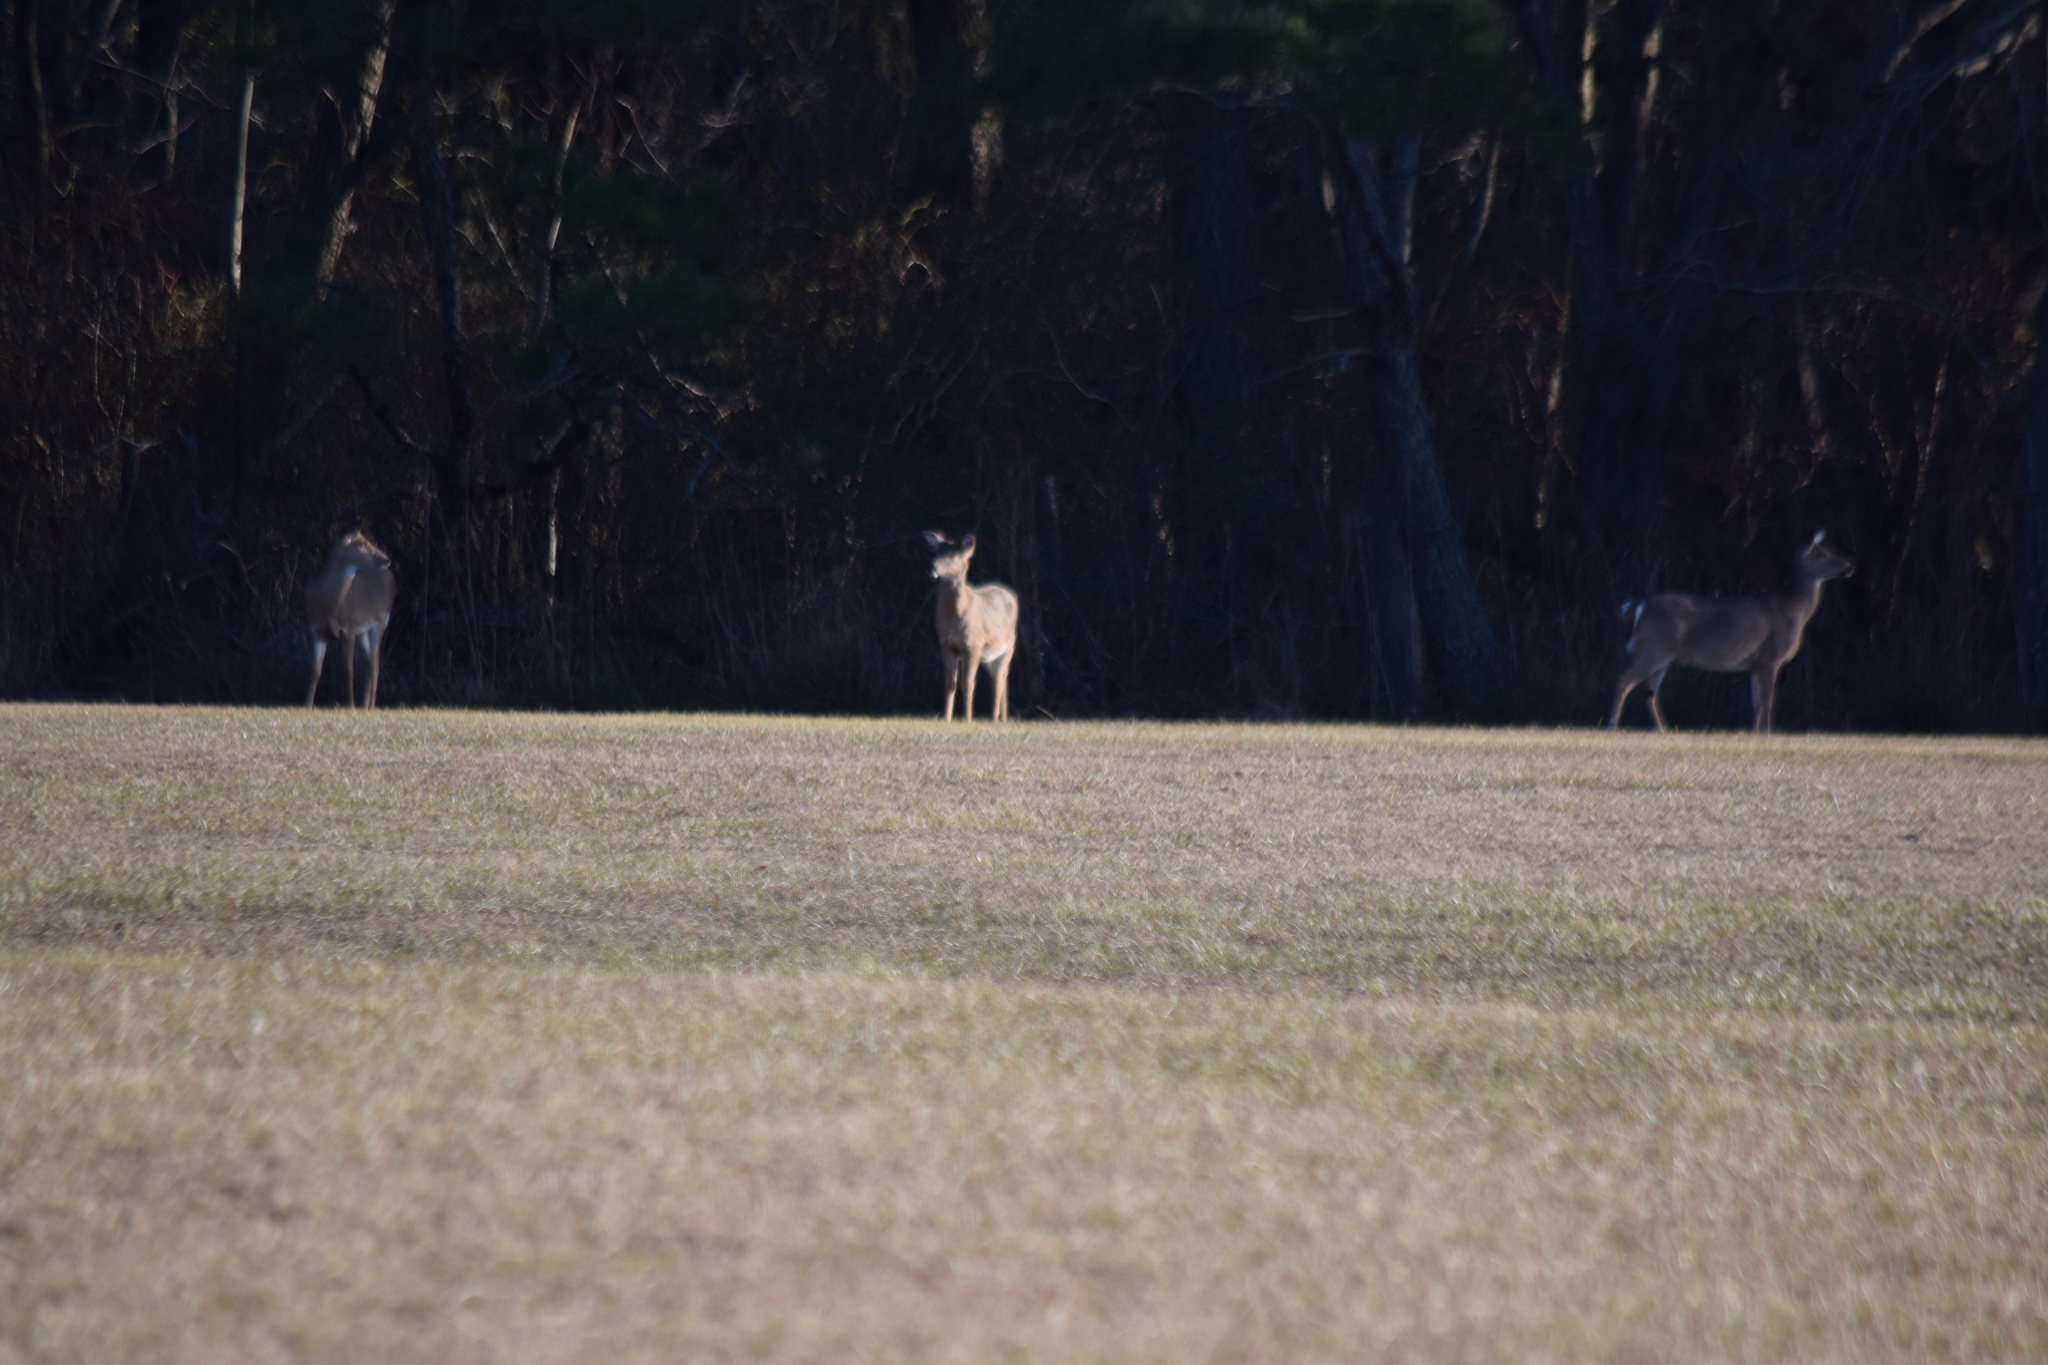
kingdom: Animalia
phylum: Chordata
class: Mammalia
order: Artiodactyla
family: Cervidae
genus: Odocoileus
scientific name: Odocoileus virginianus
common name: White-tailed deer
